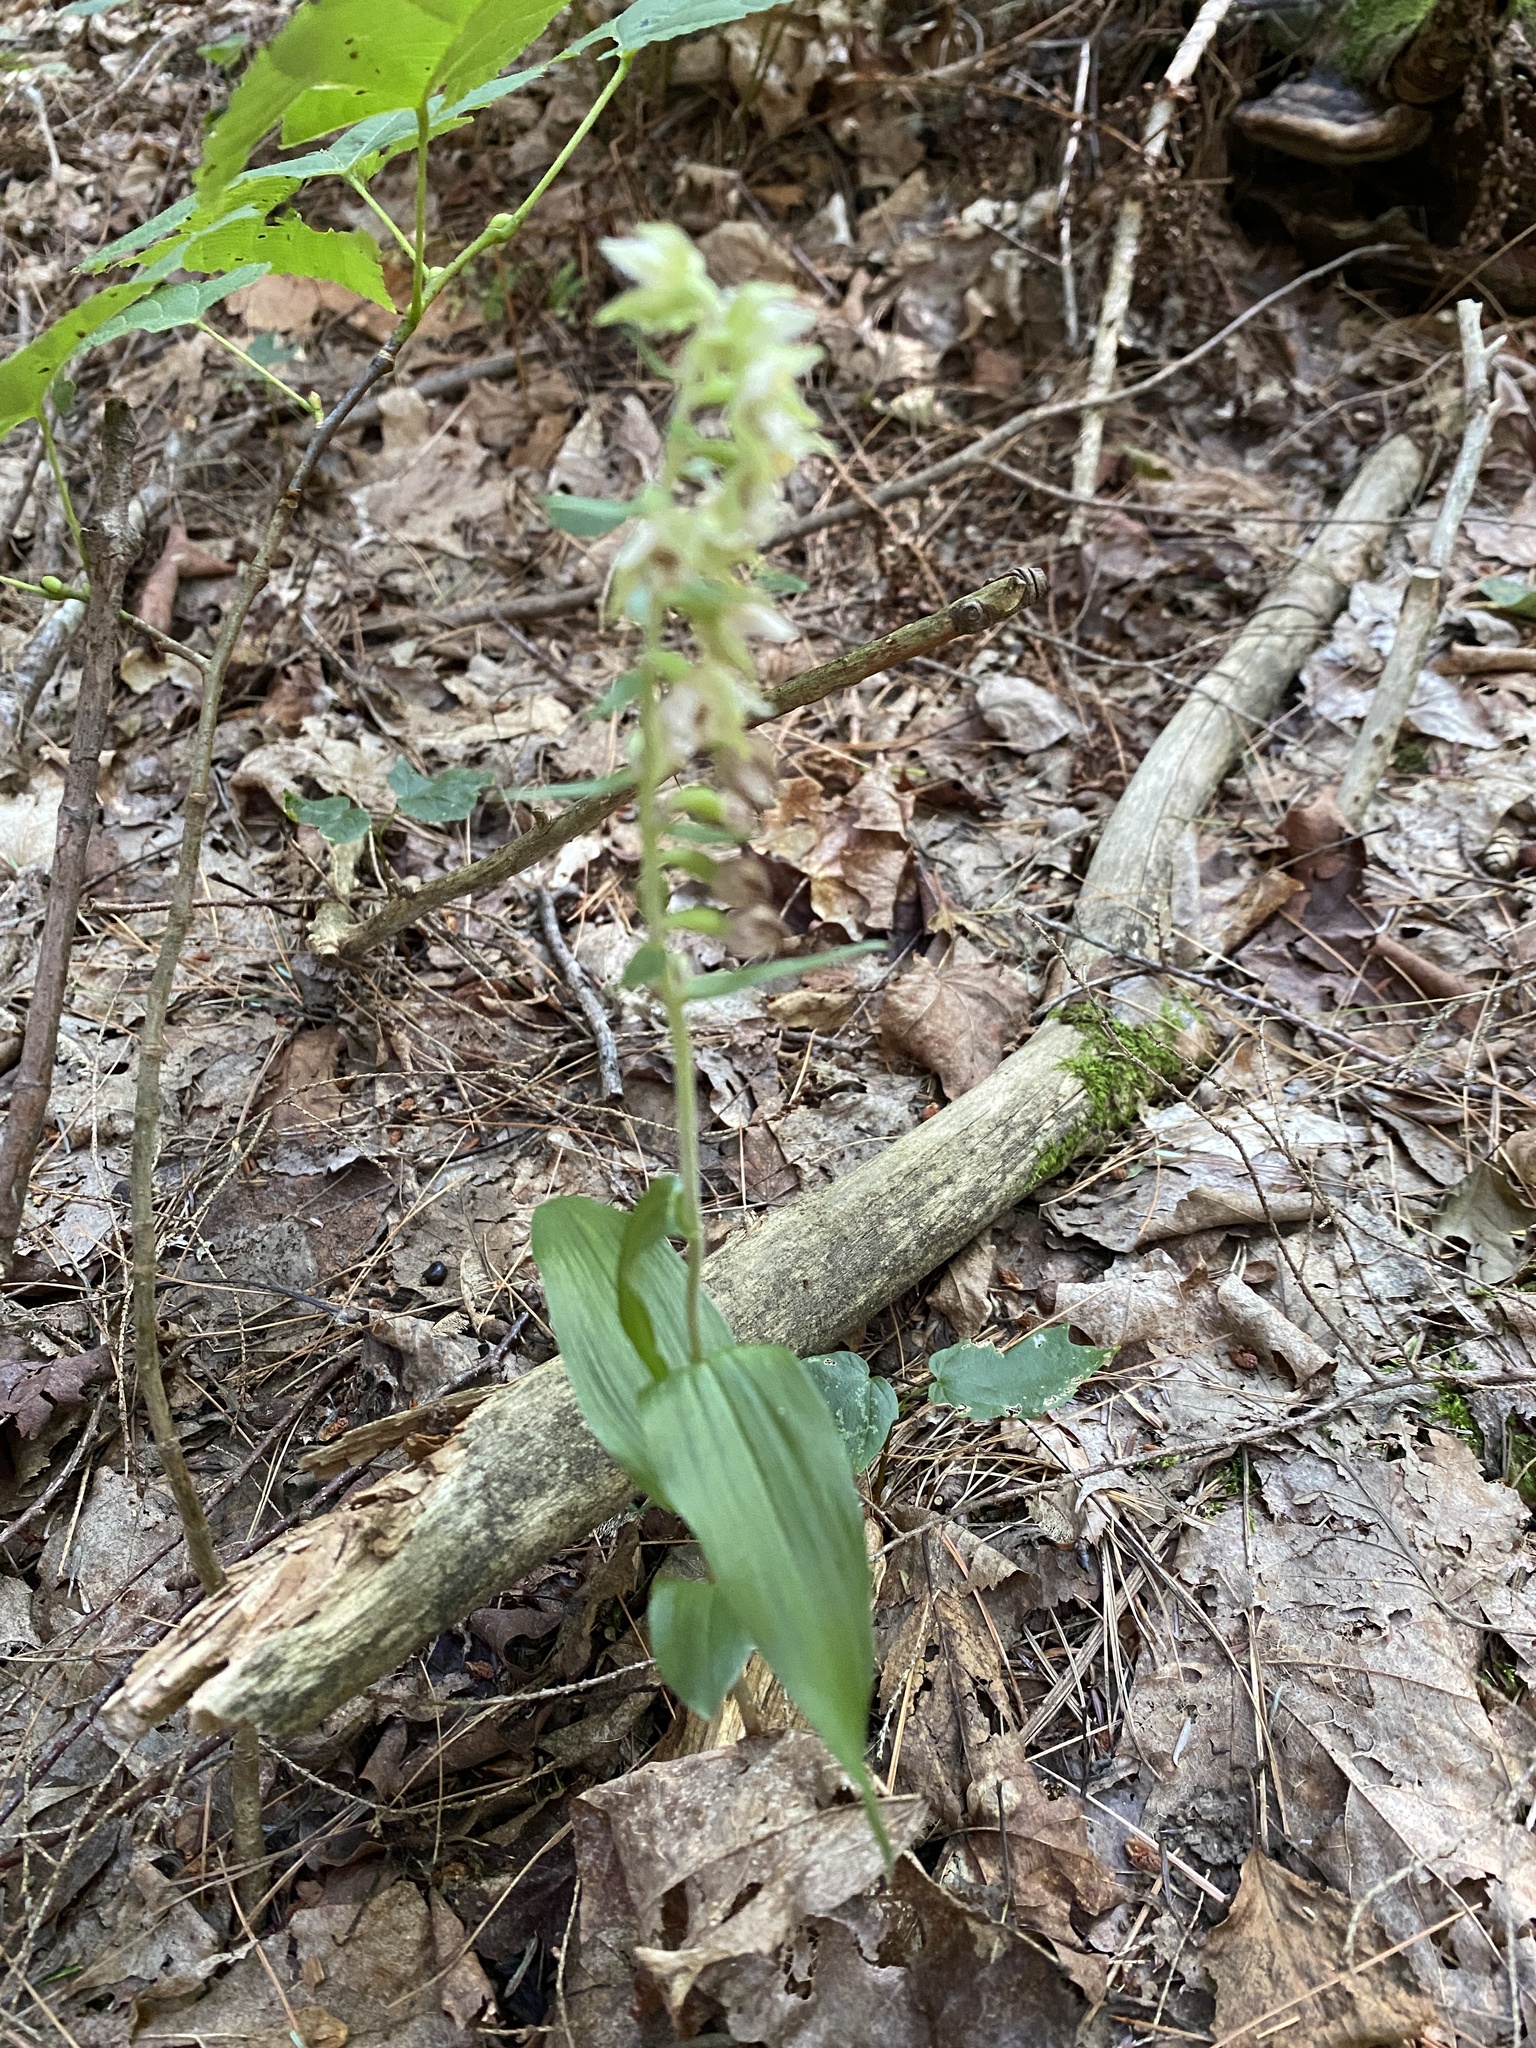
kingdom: Plantae
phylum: Tracheophyta
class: Liliopsida
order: Asparagales
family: Orchidaceae
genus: Epipactis
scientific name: Epipactis helleborine
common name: Broad-leaved helleborine
